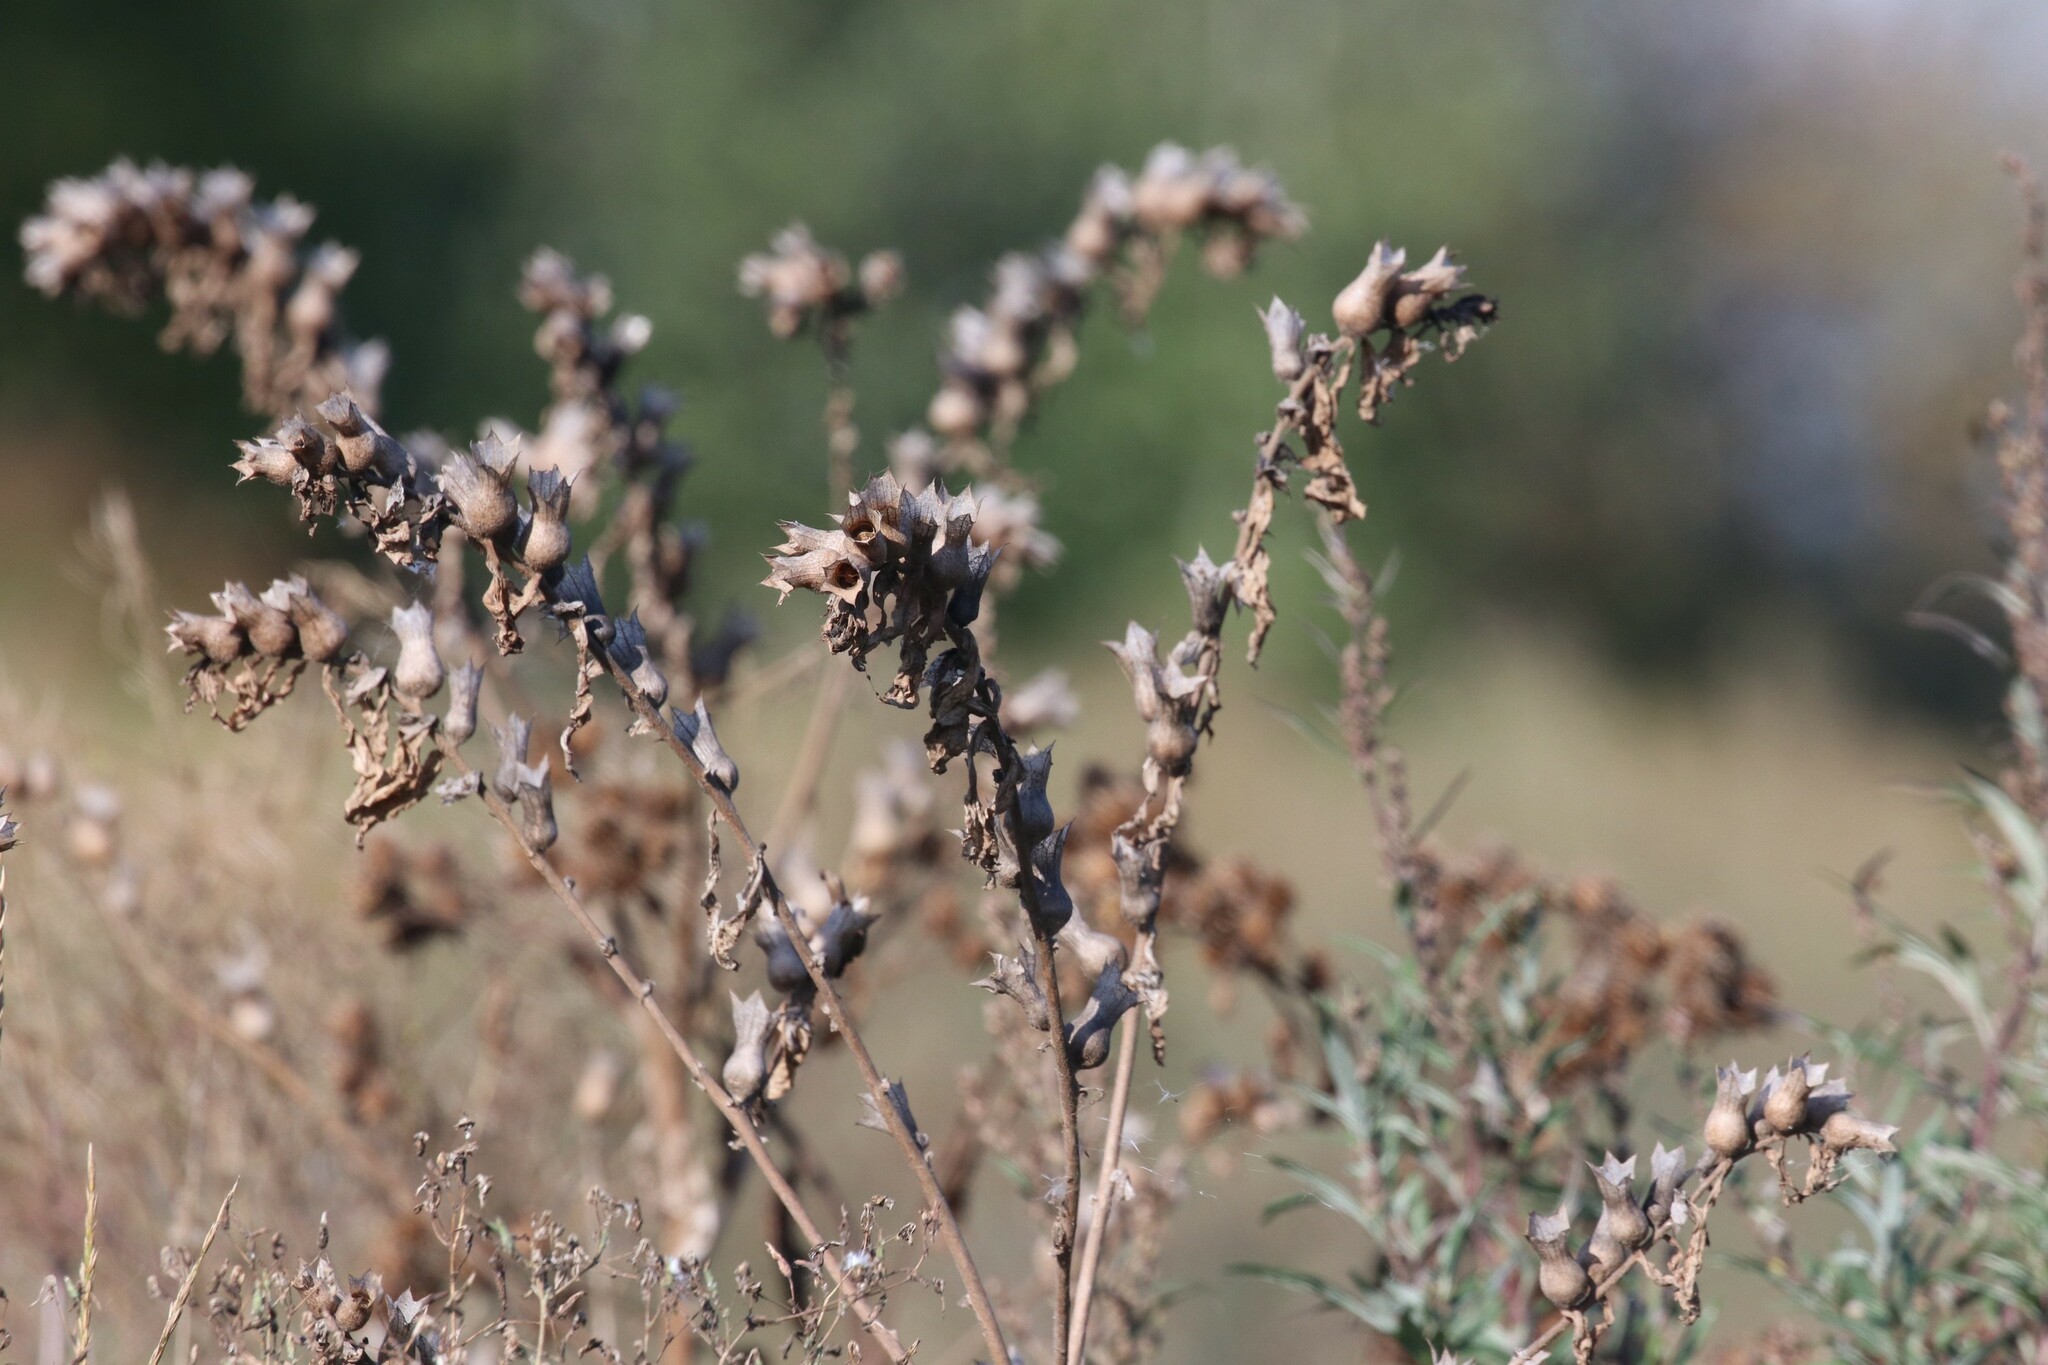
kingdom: Plantae
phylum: Tracheophyta
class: Magnoliopsida
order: Solanales
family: Solanaceae
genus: Hyoscyamus
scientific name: Hyoscyamus niger
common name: Henbane
